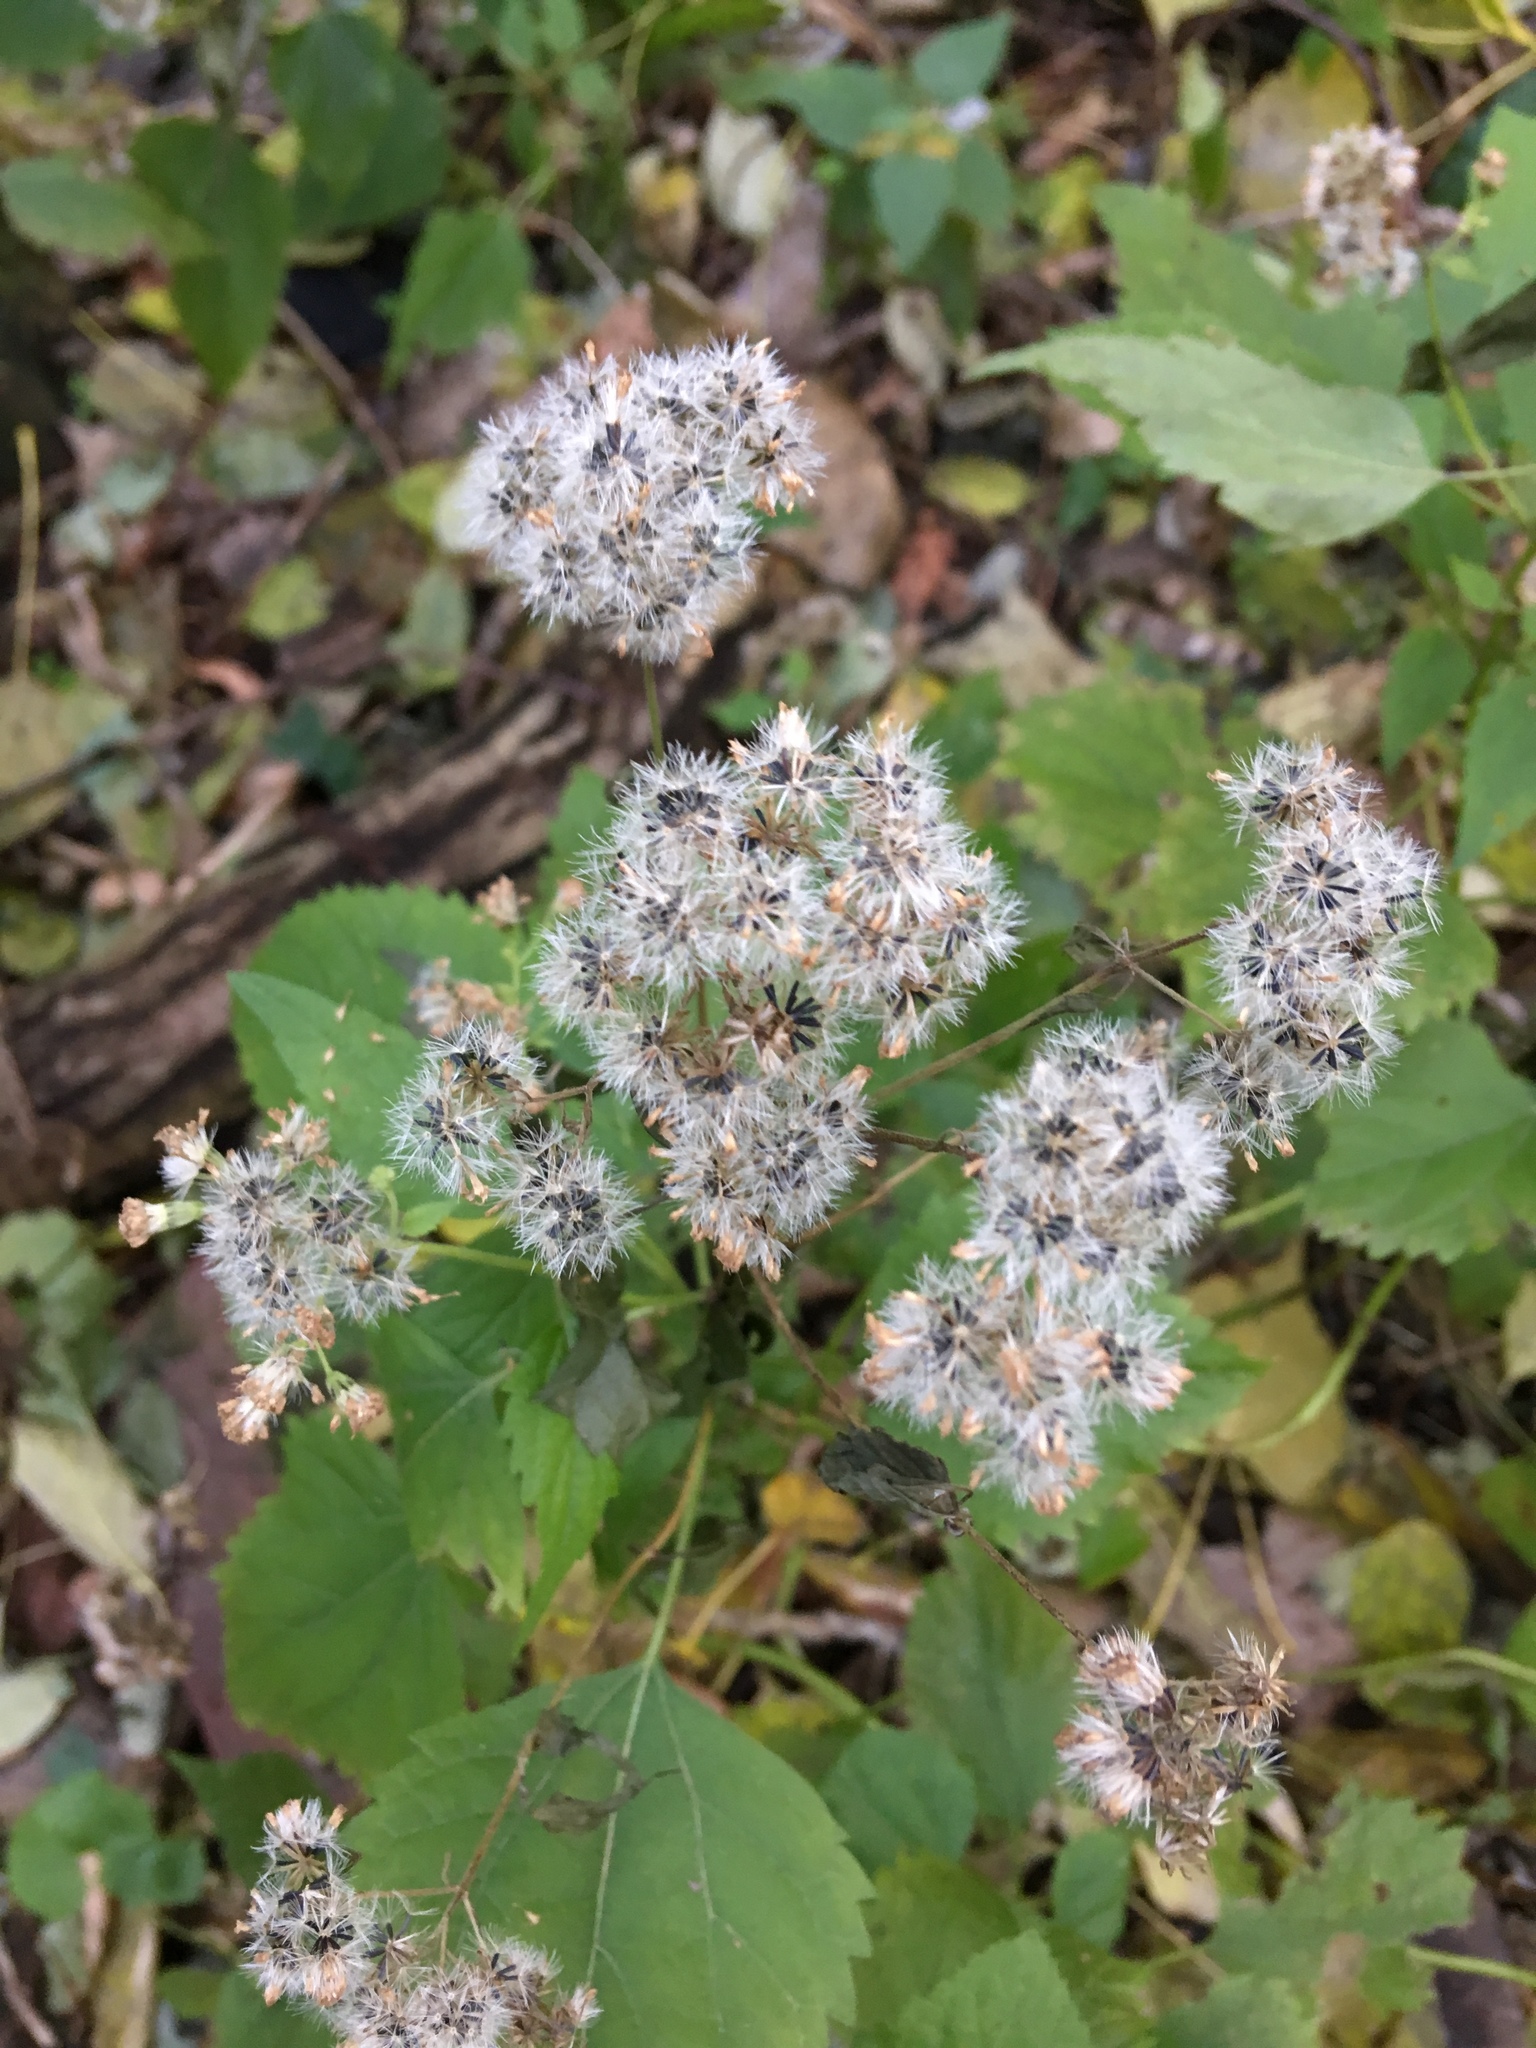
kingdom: Plantae
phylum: Tracheophyta
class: Magnoliopsida
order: Asterales
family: Asteraceae
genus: Ageratina
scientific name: Ageratina altissima
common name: White snakeroot
